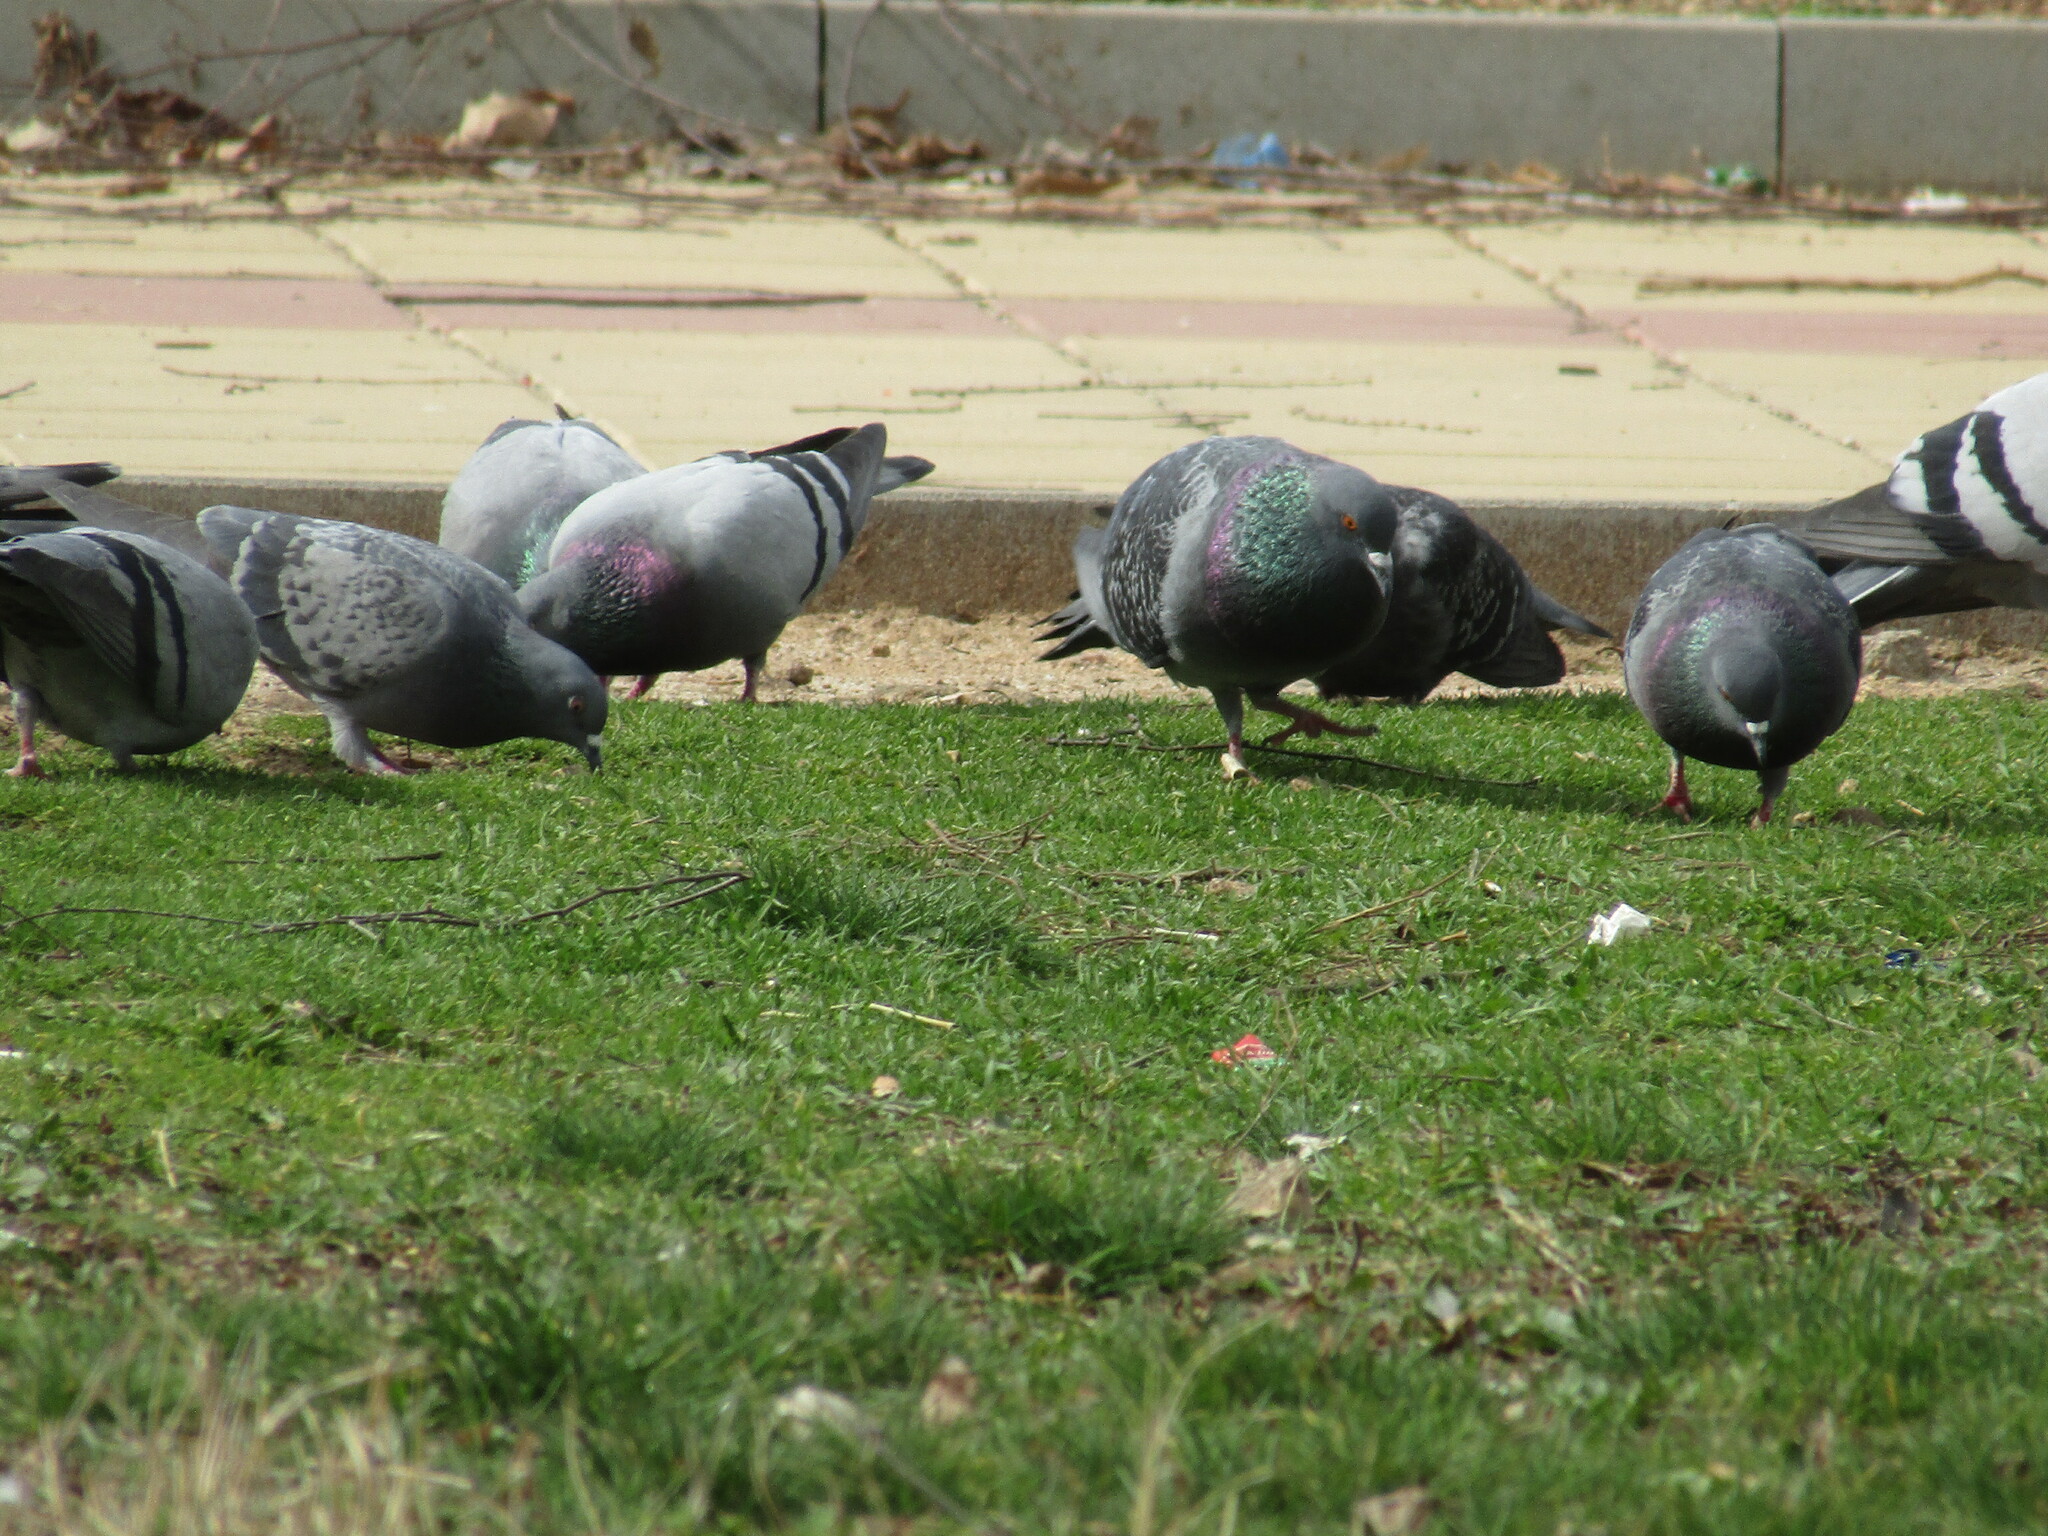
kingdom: Animalia
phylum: Chordata
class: Aves
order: Columbiformes
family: Columbidae
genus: Columba
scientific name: Columba livia
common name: Rock pigeon
